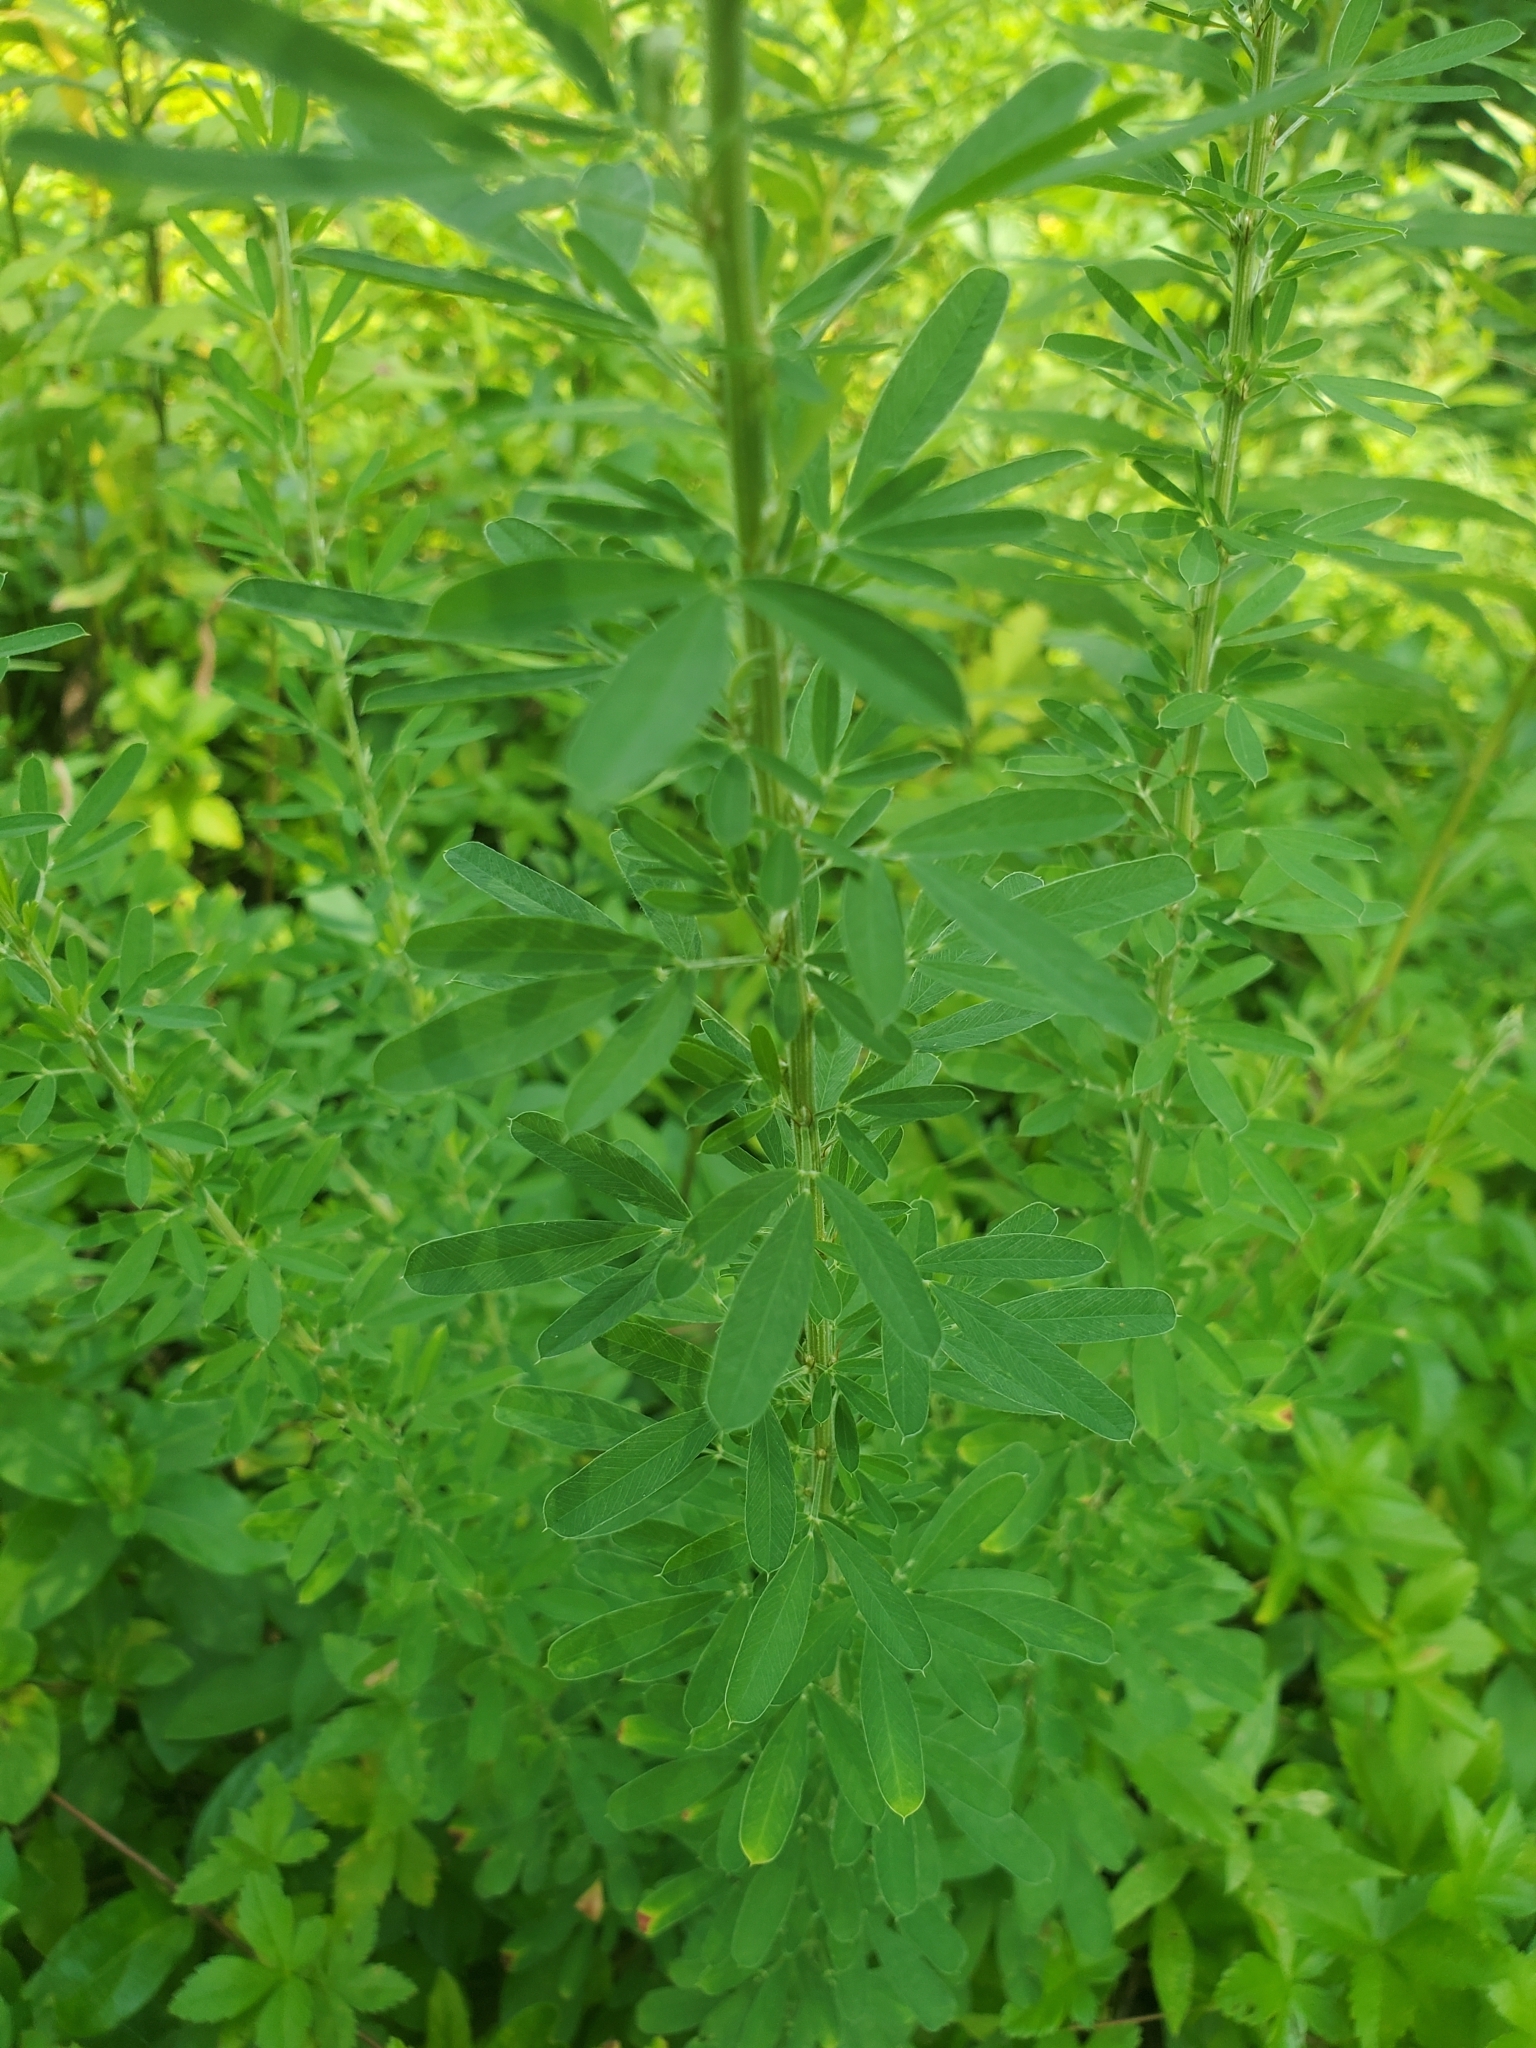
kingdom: Plantae
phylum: Tracheophyta
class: Magnoliopsida
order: Fabales
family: Fabaceae
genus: Lespedeza
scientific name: Lespedeza cuneata
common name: Chinese bush-clover
